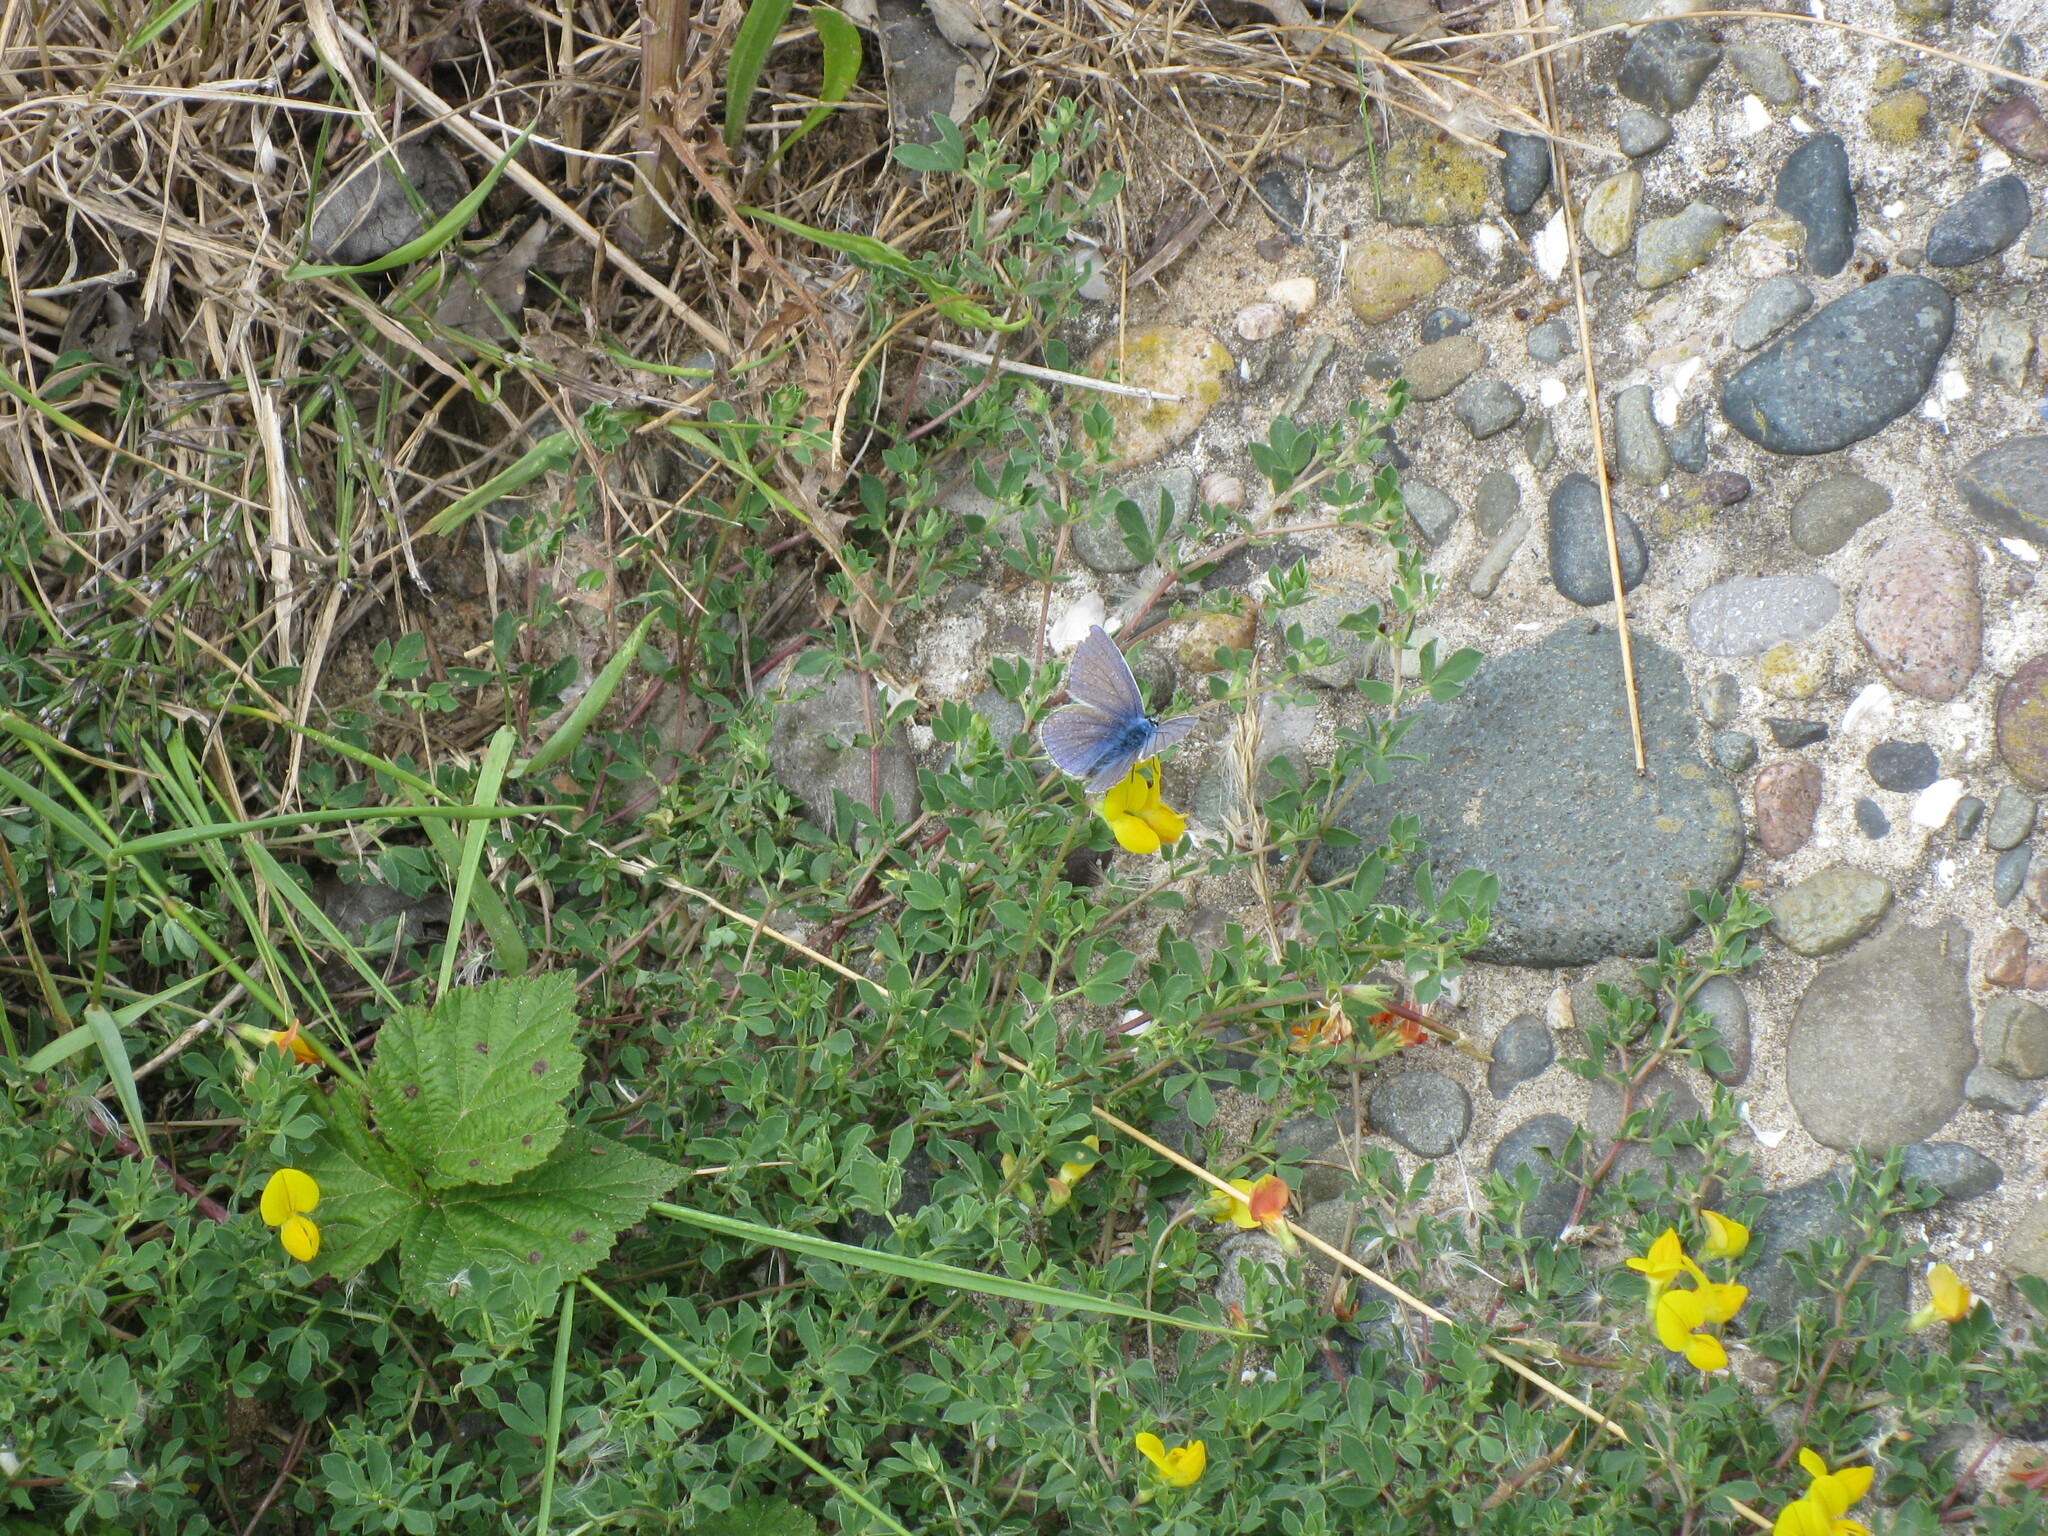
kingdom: Animalia
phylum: Arthropoda
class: Insecta
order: Lepidoptera
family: Lycaenidae
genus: Polyommatus
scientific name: Polyommatus icarus
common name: Common blue
